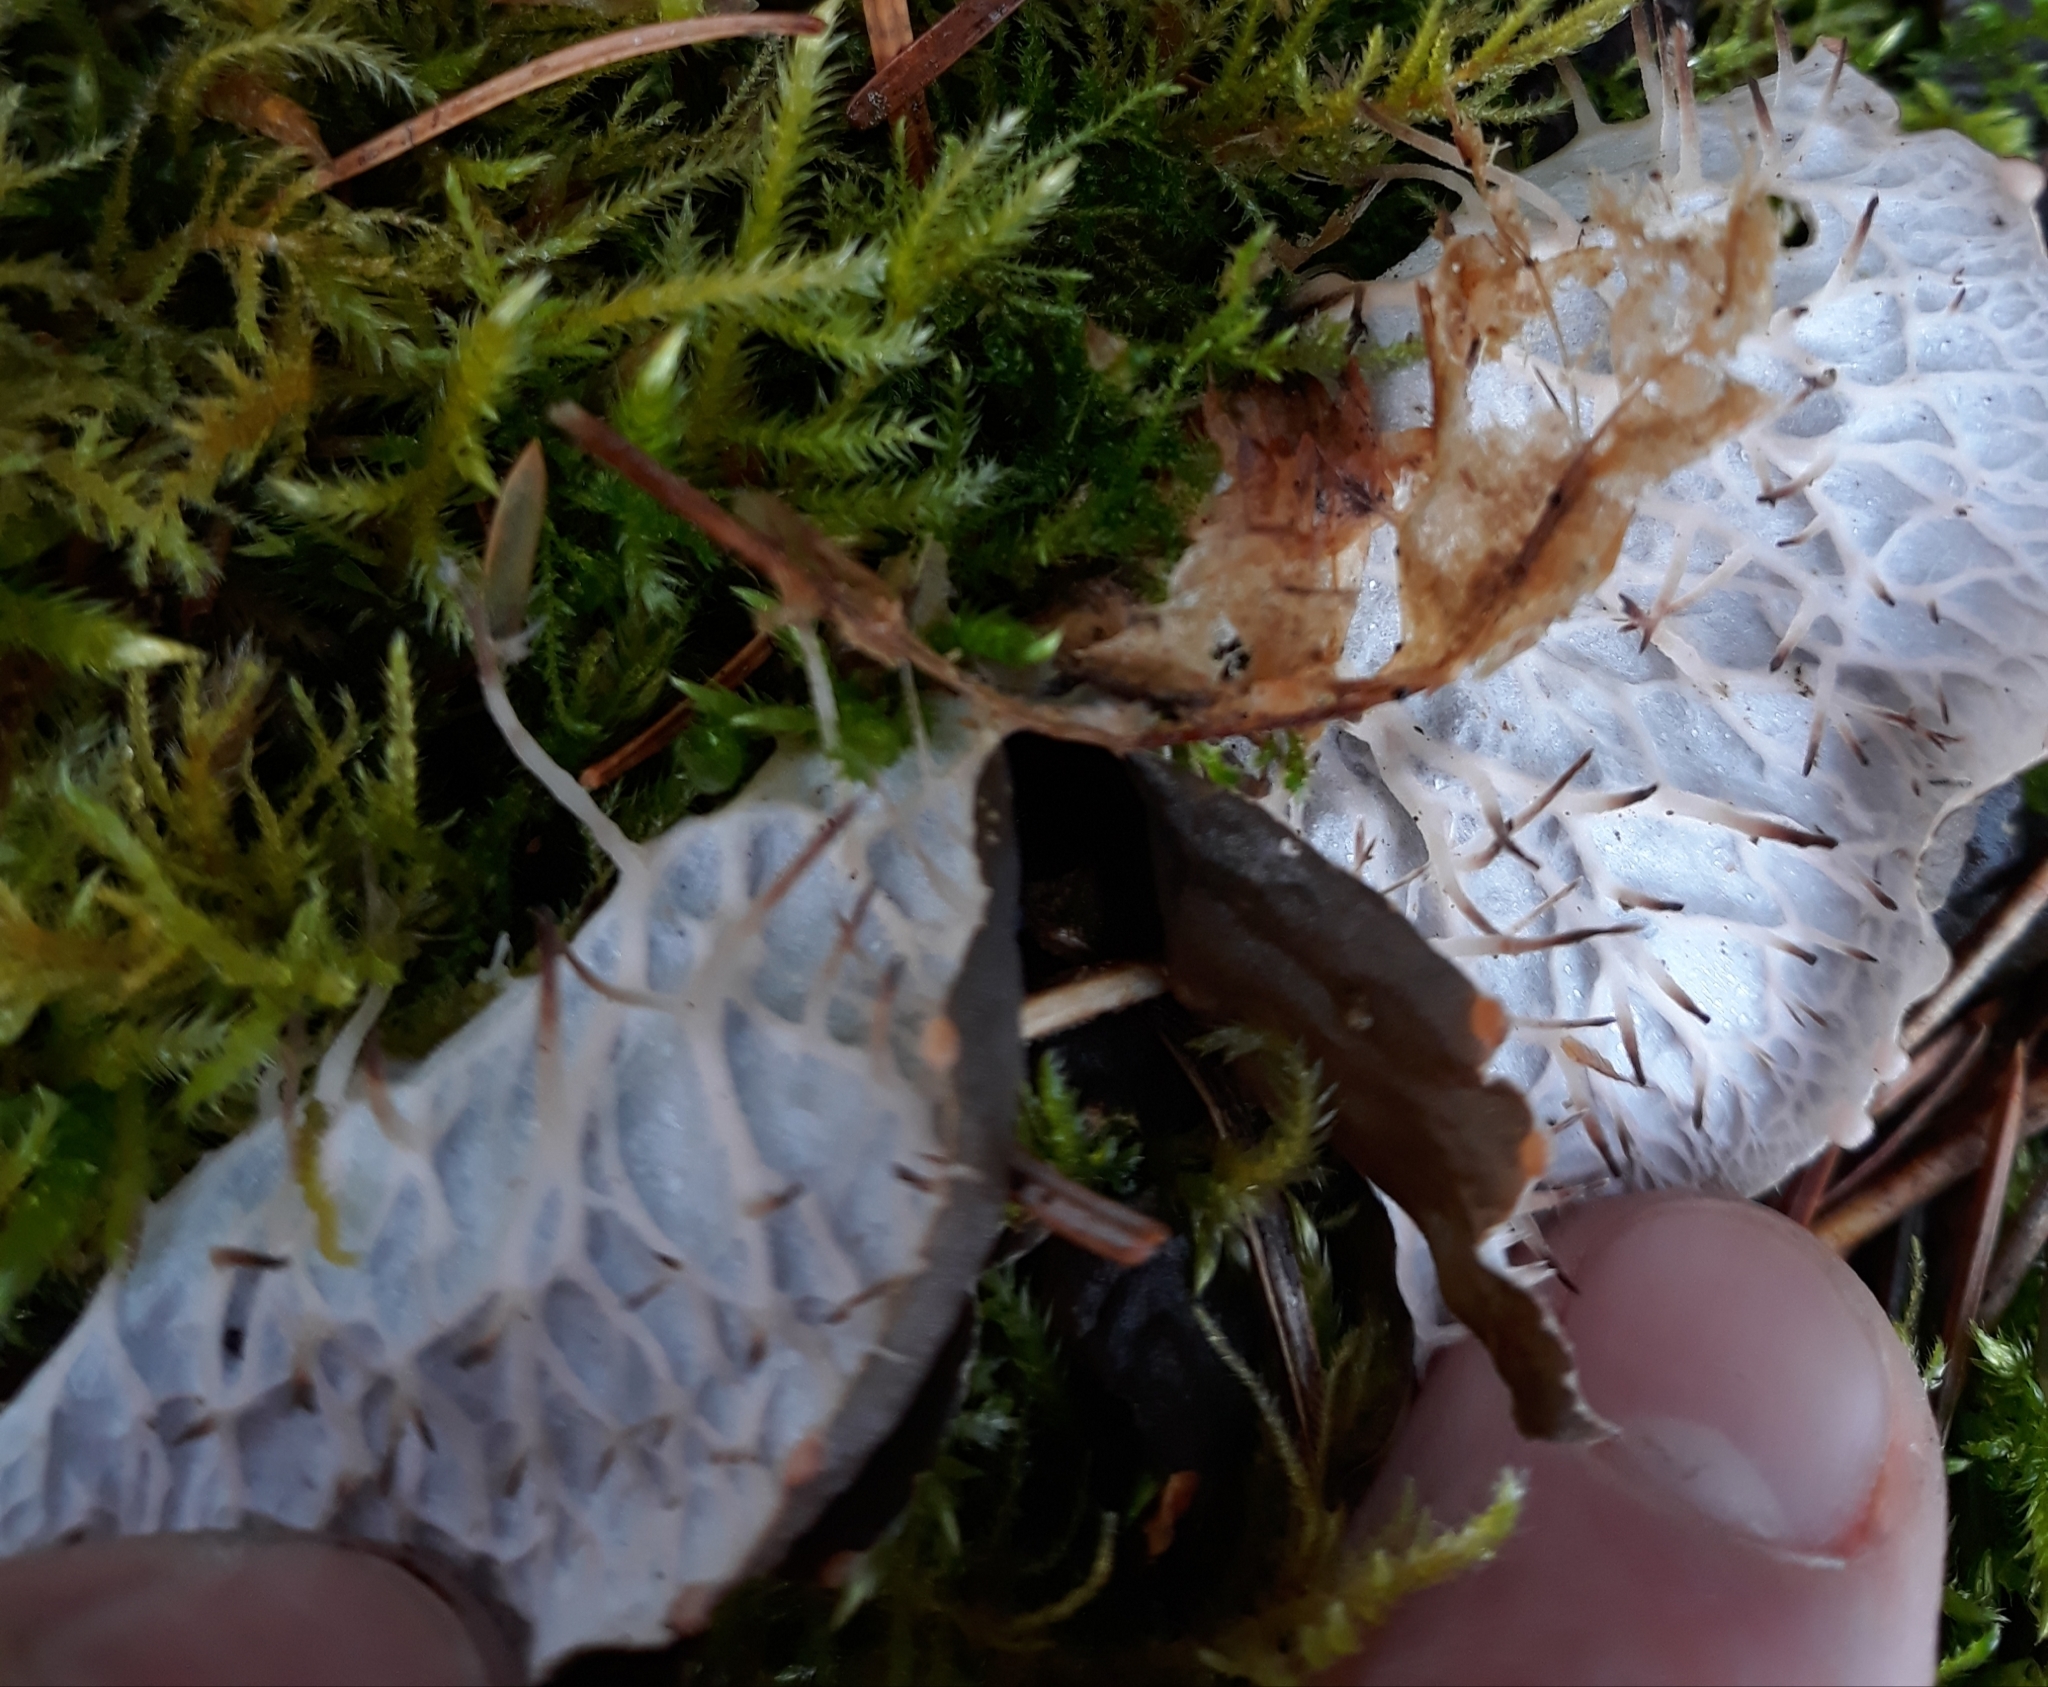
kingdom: Fungi
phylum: Ascomycota
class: Lecanoromycetes
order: Peltigerales
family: Peltigeraceae
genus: Peltigera
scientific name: Peltigera membranacea
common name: Membranous pelt lichen
